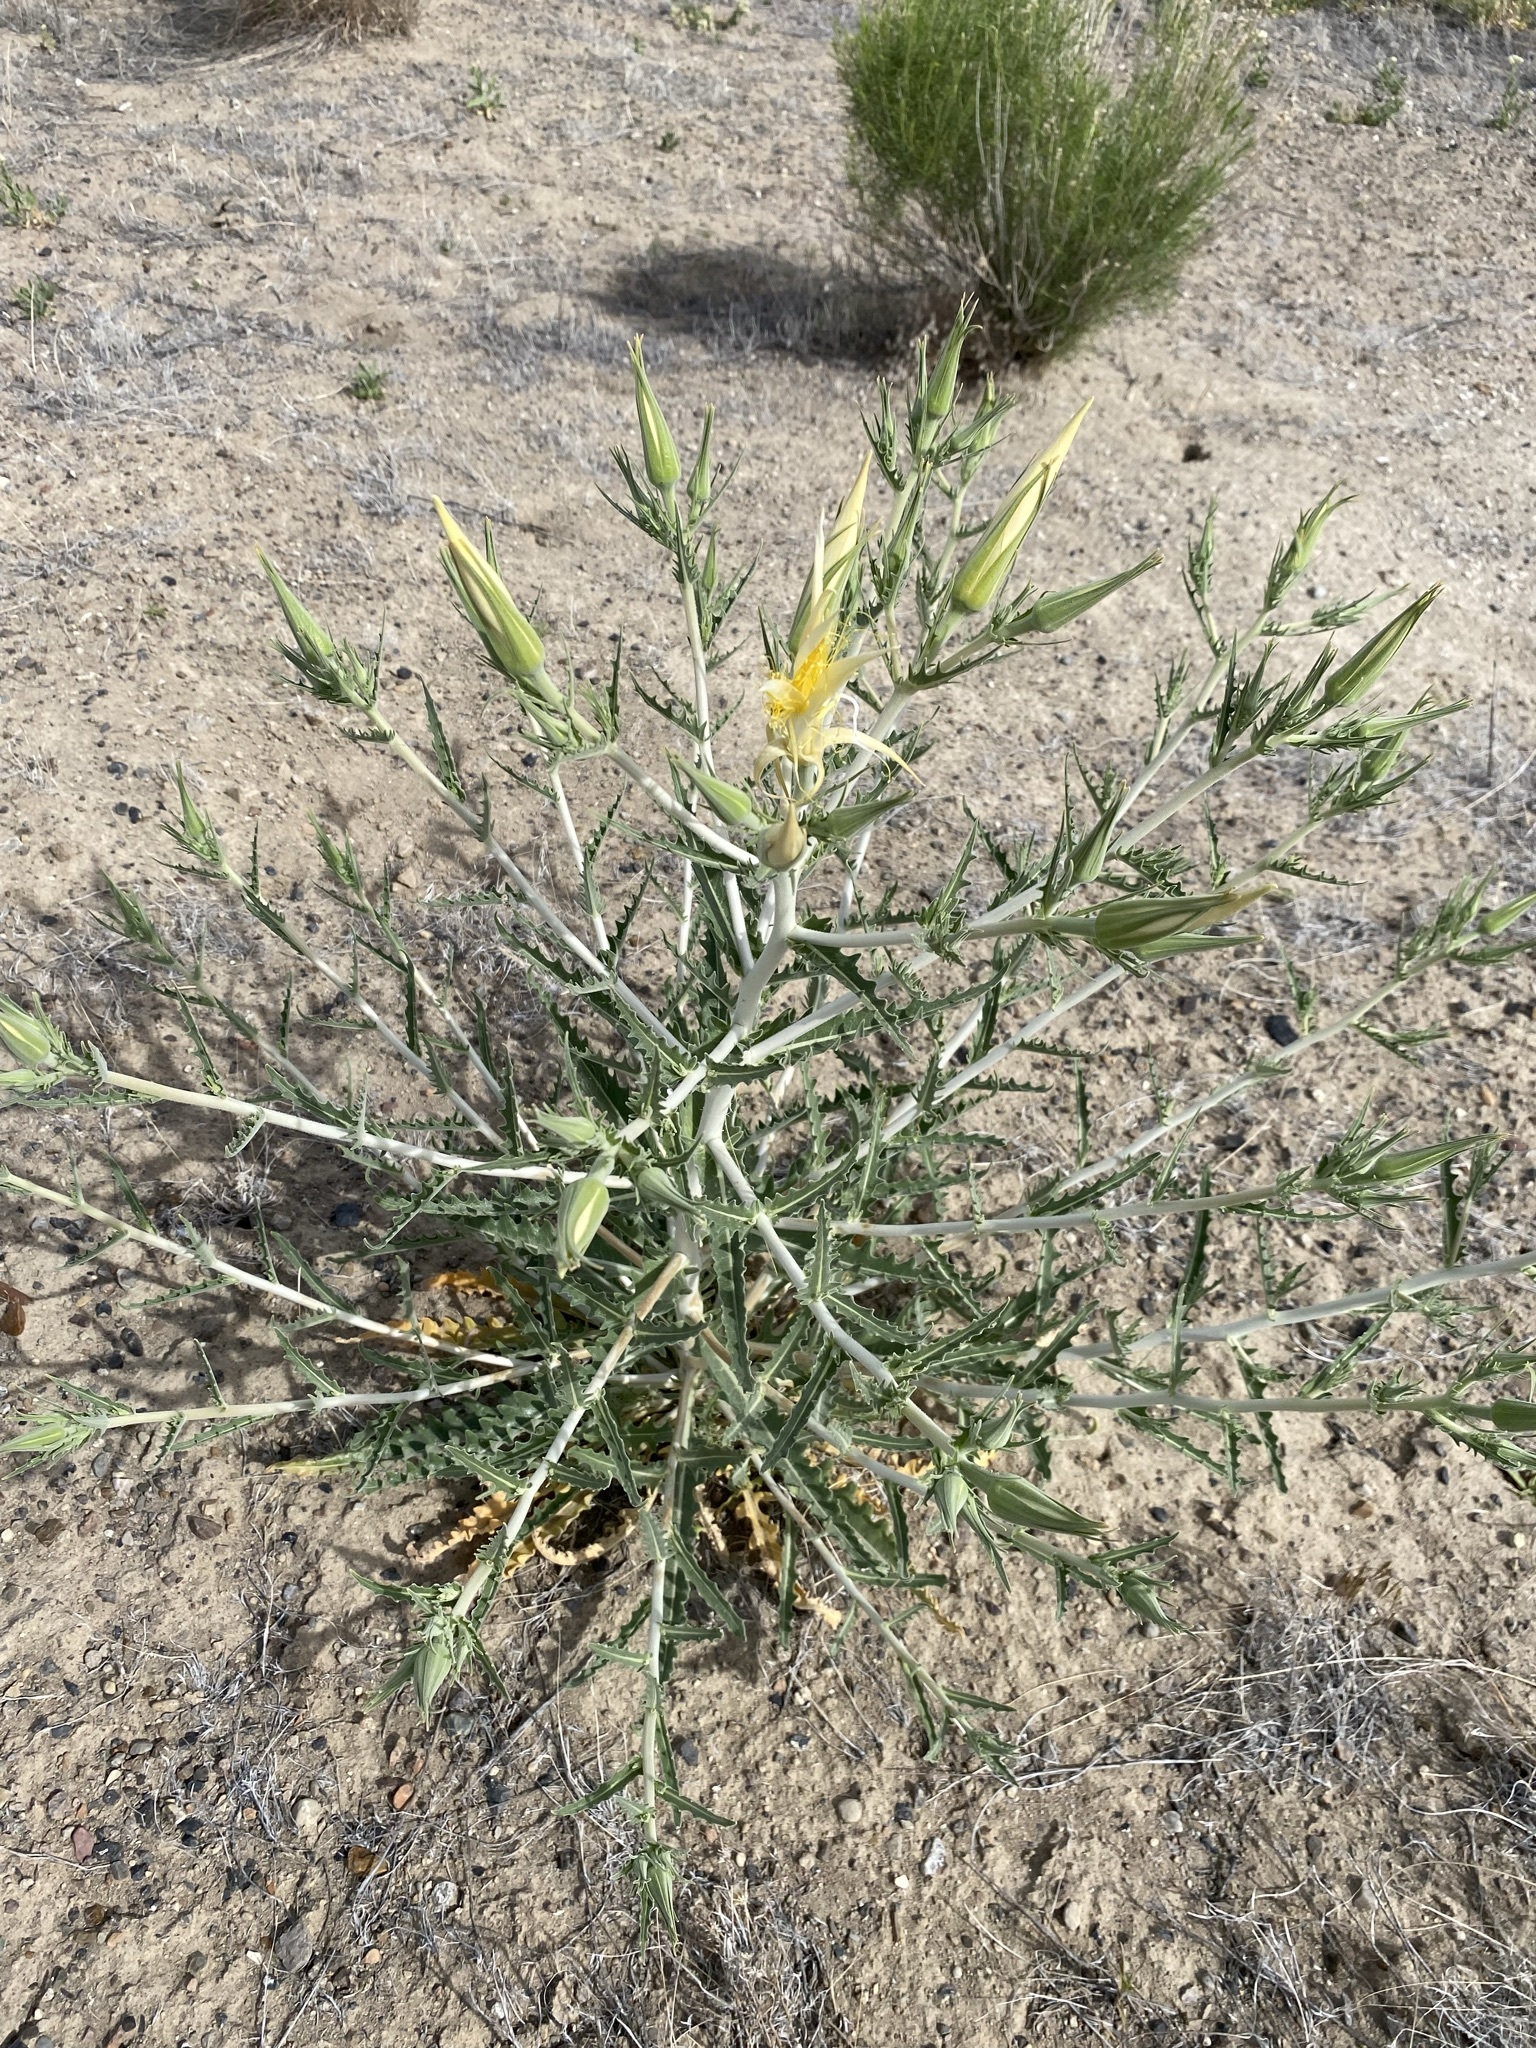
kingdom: Plantae
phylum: Tracheophyta
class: Magnoliopsida
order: Cornales
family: Loasaceae
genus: Mentzelia
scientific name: Mentzelia laevicaulis
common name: Smooth-stem blazingstar
